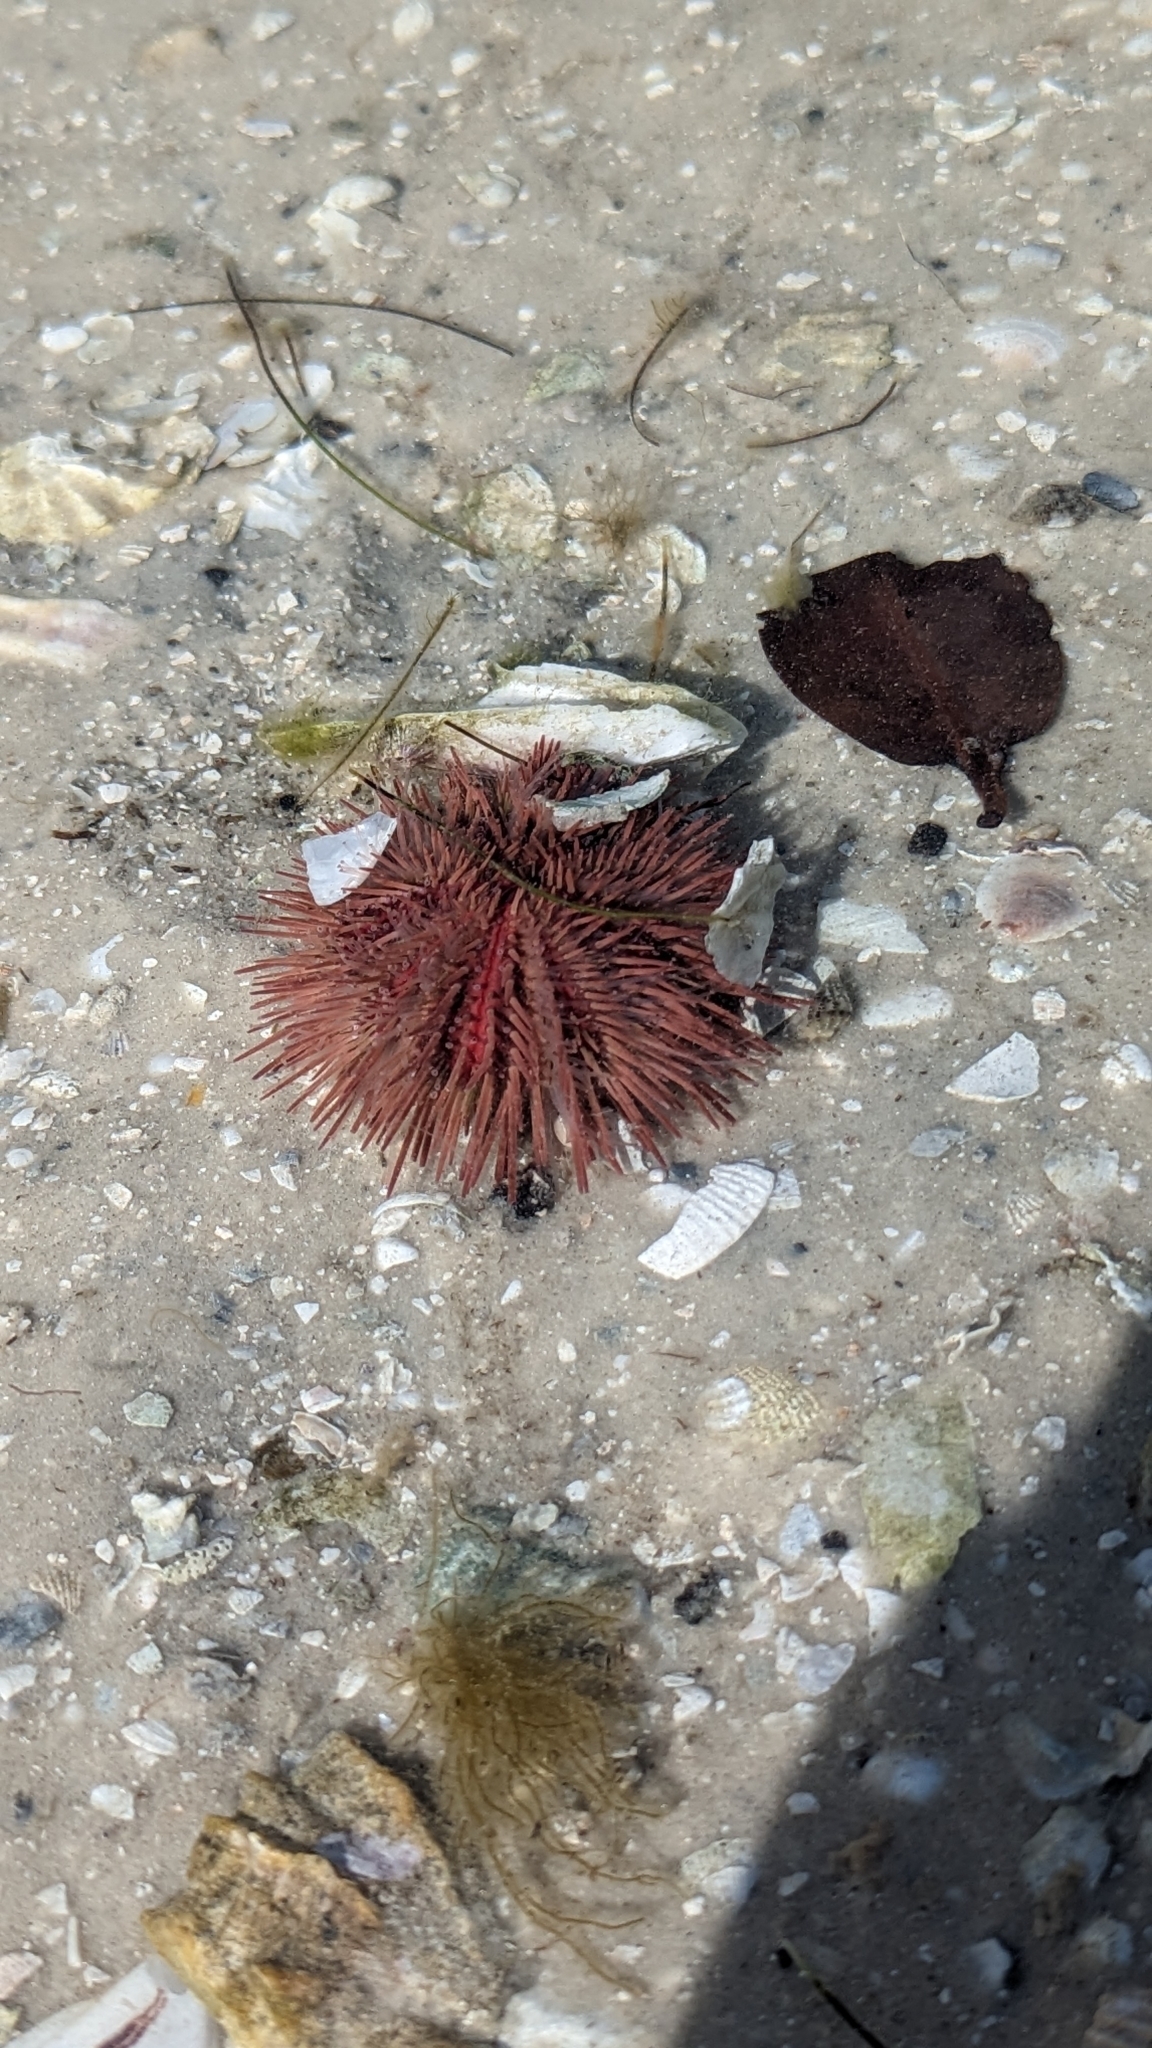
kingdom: Animalia
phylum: Echinodermata
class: Echinoidea
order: Camarodonta
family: Toxopneustidae
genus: Lytechinus
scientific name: Lytechinus variegatus
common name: Variegated urchin
